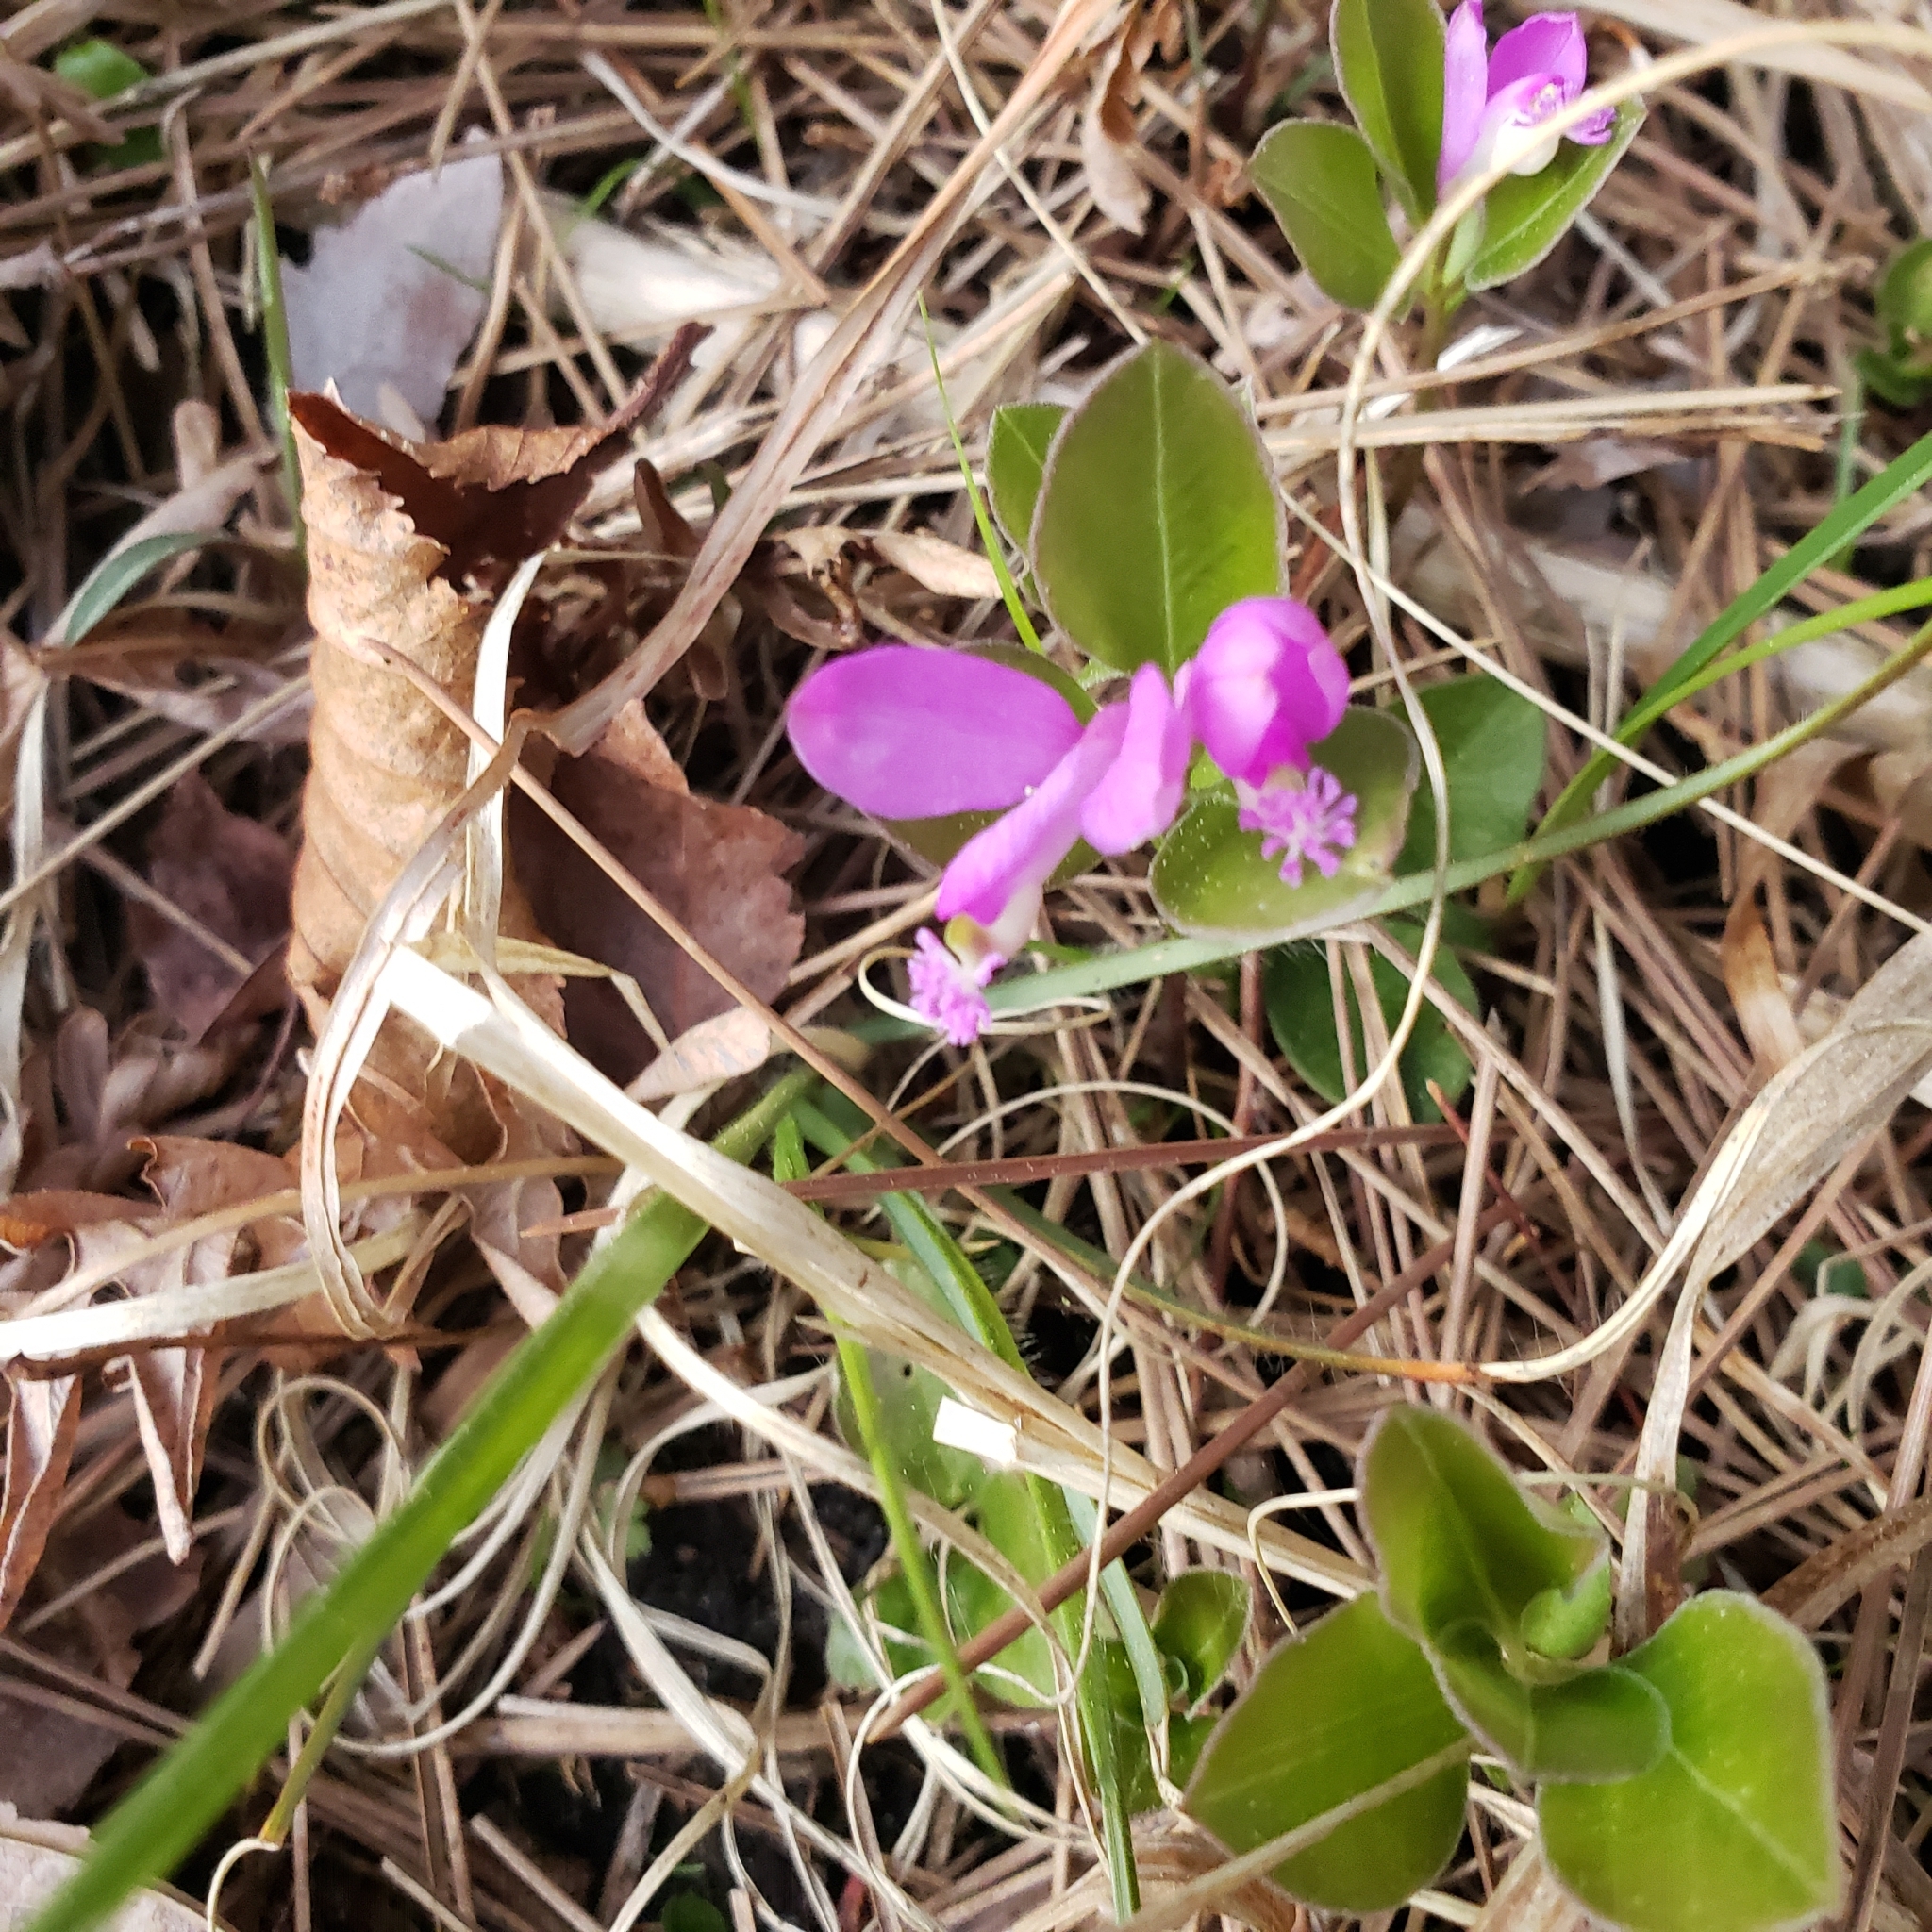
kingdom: Plantae
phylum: Tracheophyta
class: Magnoliopsida
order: Fabales
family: Polygalaceae
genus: Polygaloides
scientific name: Polygaloides paucifolia
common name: Bird-on-the-wing
